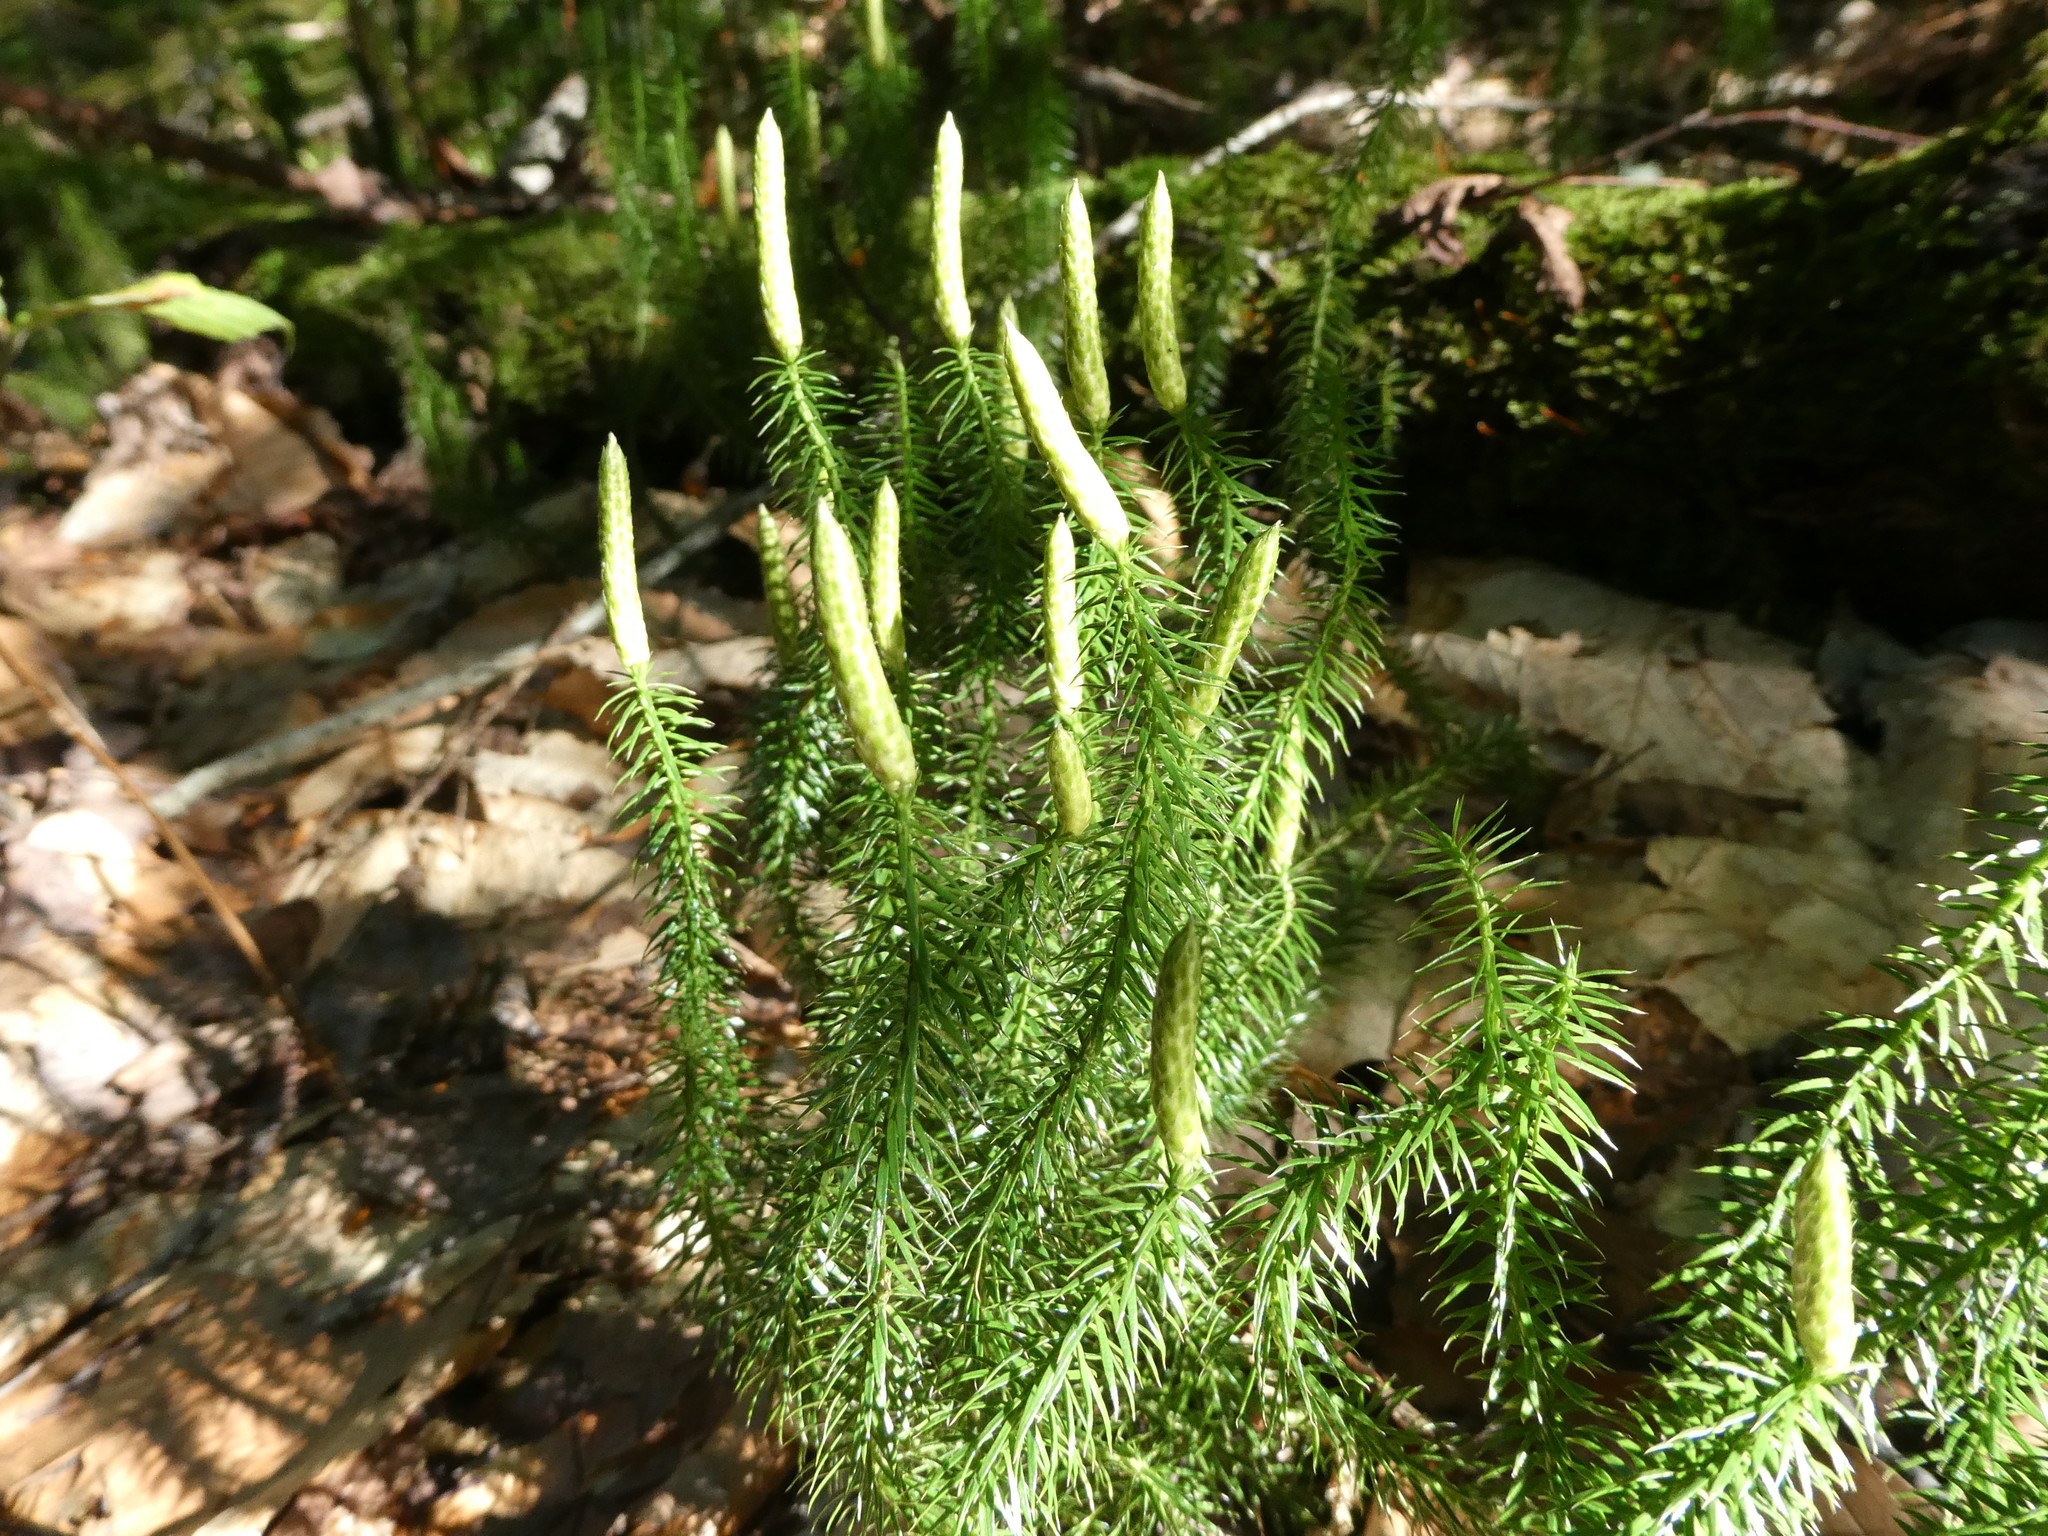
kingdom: Plantae
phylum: Tracheophyta
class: Lycopodiopsida
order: Lycopodiales
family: Lycopodiaceae
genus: Spinulum
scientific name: Spinulum annotinum
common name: Interrupted club-moss
